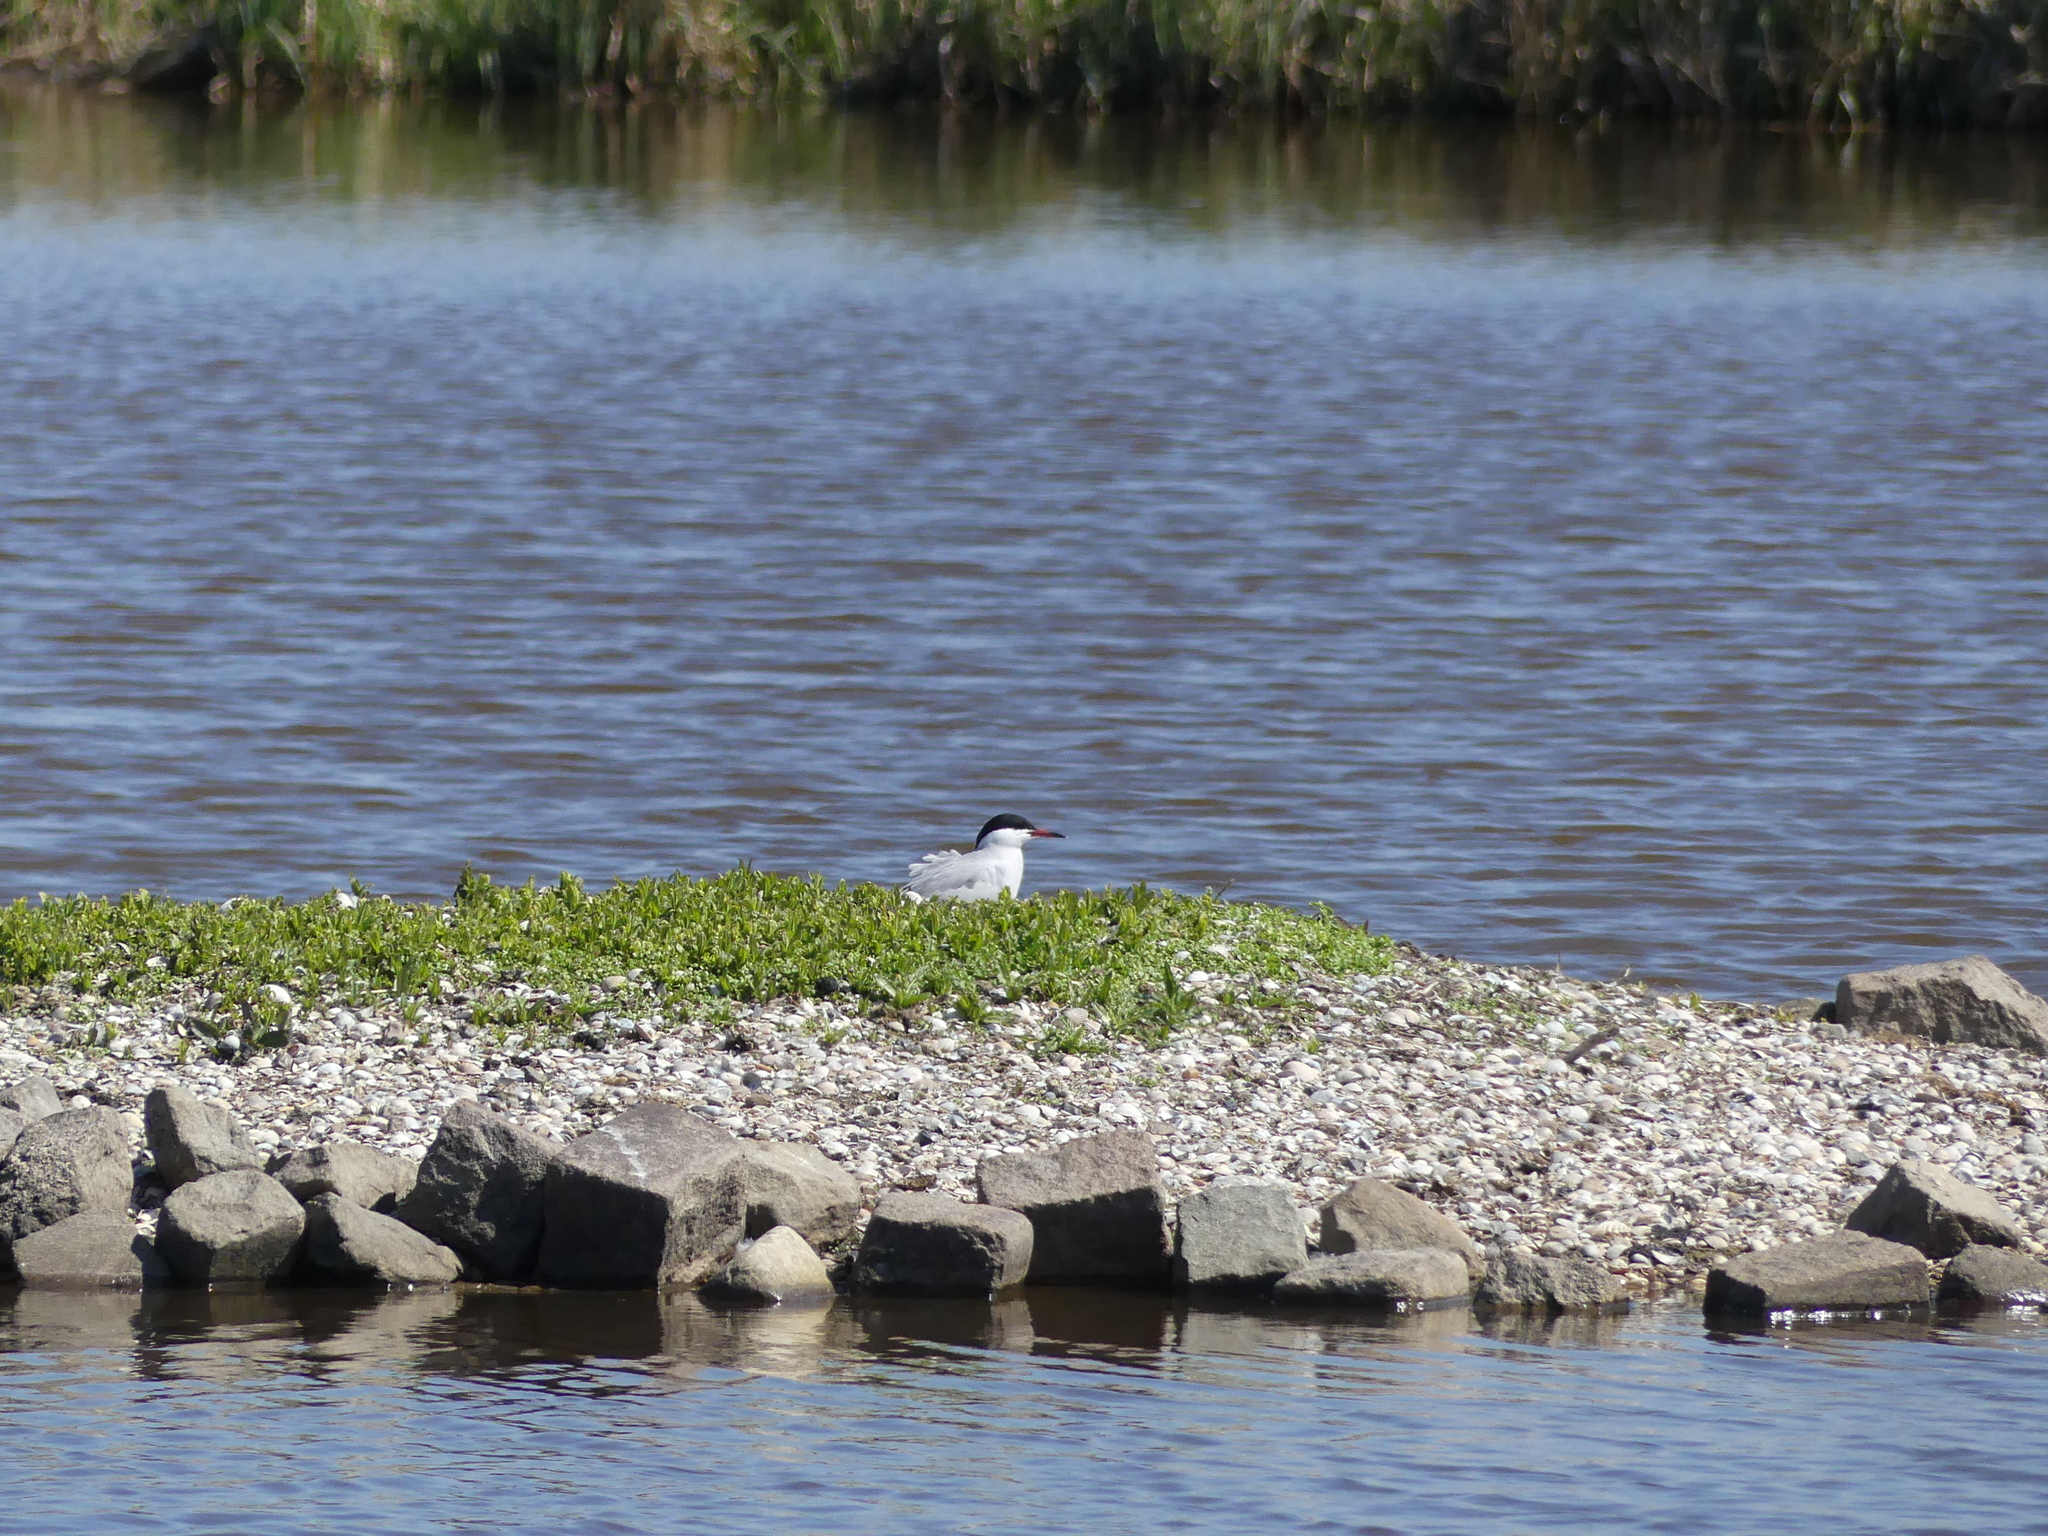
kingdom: Animalia
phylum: Chordata
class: Aves
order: Charadriiformes
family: Laridae
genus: Sterna
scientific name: Sterna hirundo
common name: Common tern
